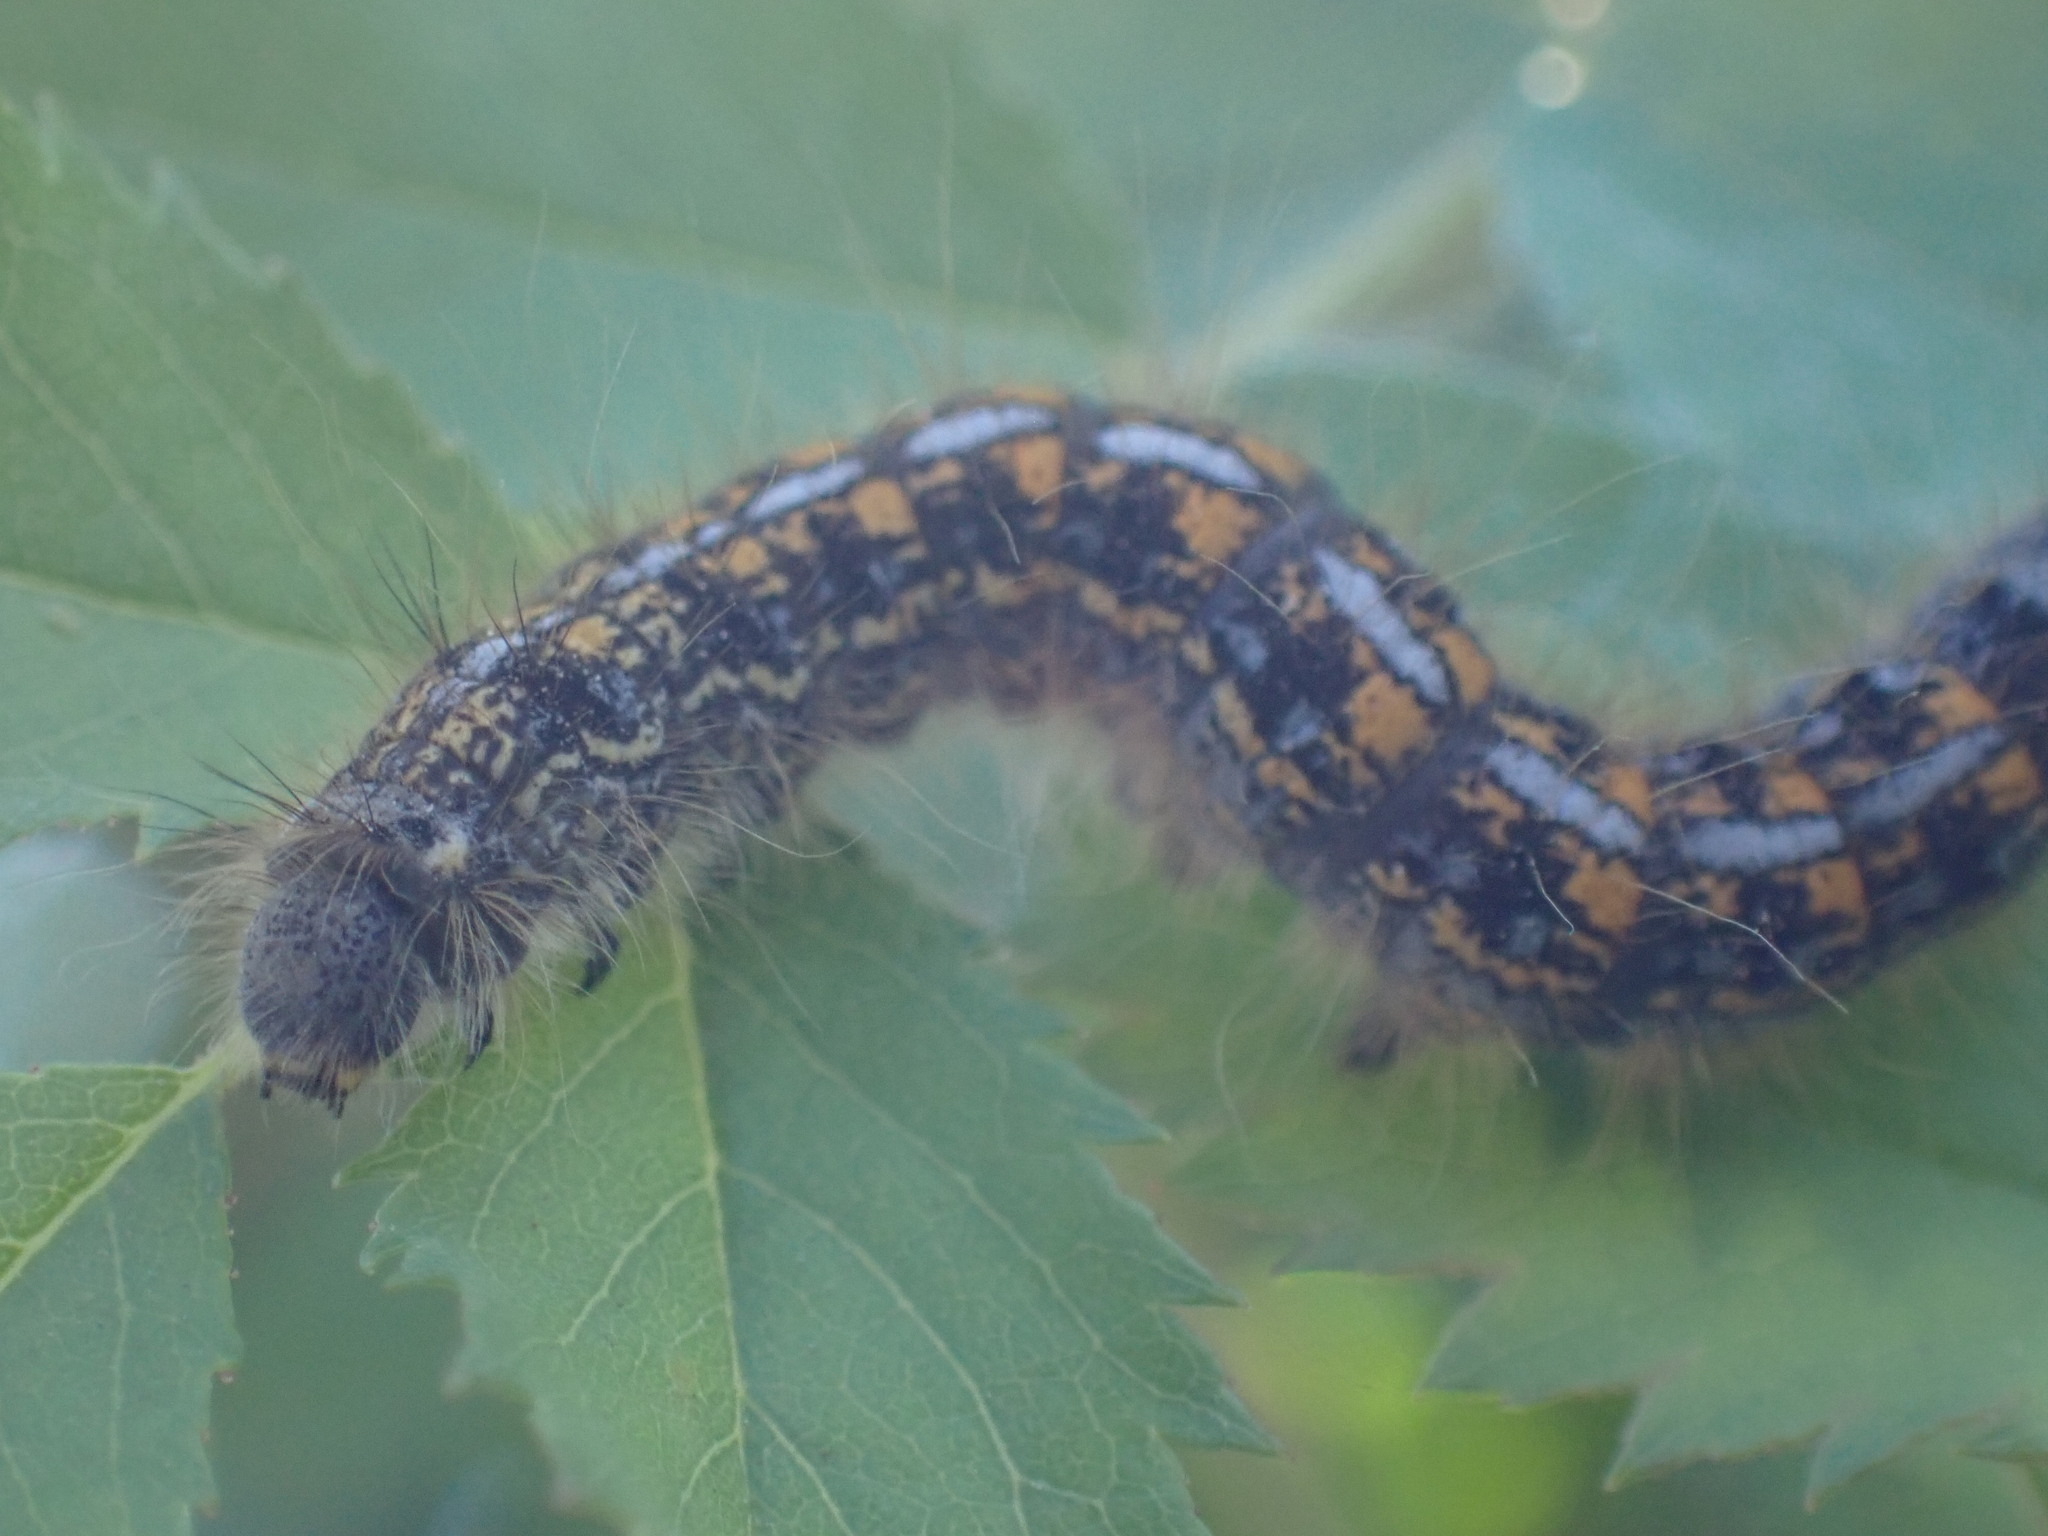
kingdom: Animalia
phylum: Arthropoda
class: Insecta
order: Lepidoptera
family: Lasiocampidae
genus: Malacosoma
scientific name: Malacosoma californica
